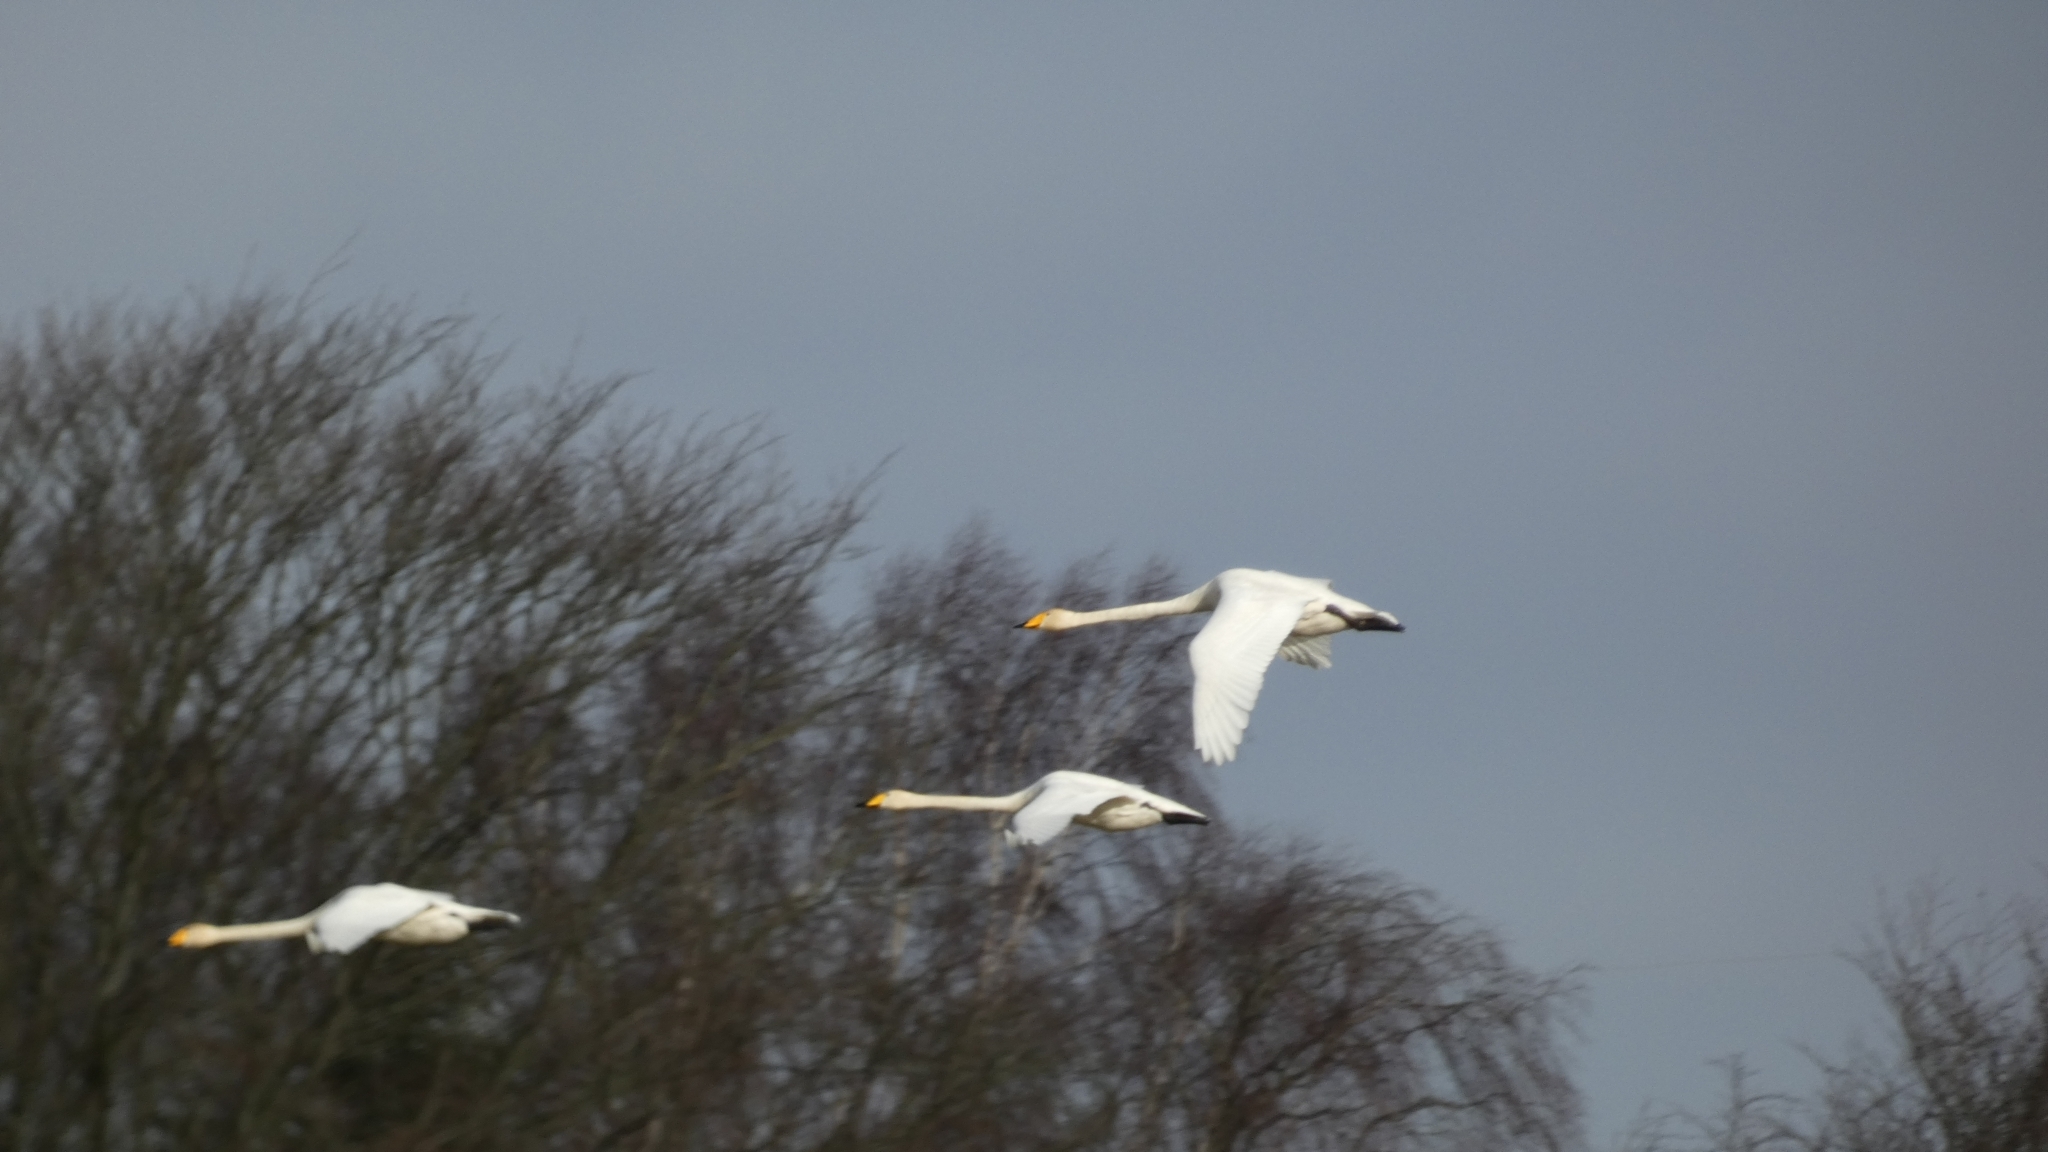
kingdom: Animalia
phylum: Chordata
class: Aves
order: Anseriformes
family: Anatidae
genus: Cygnus
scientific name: Cygnus cygnus
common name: Whooper swan
